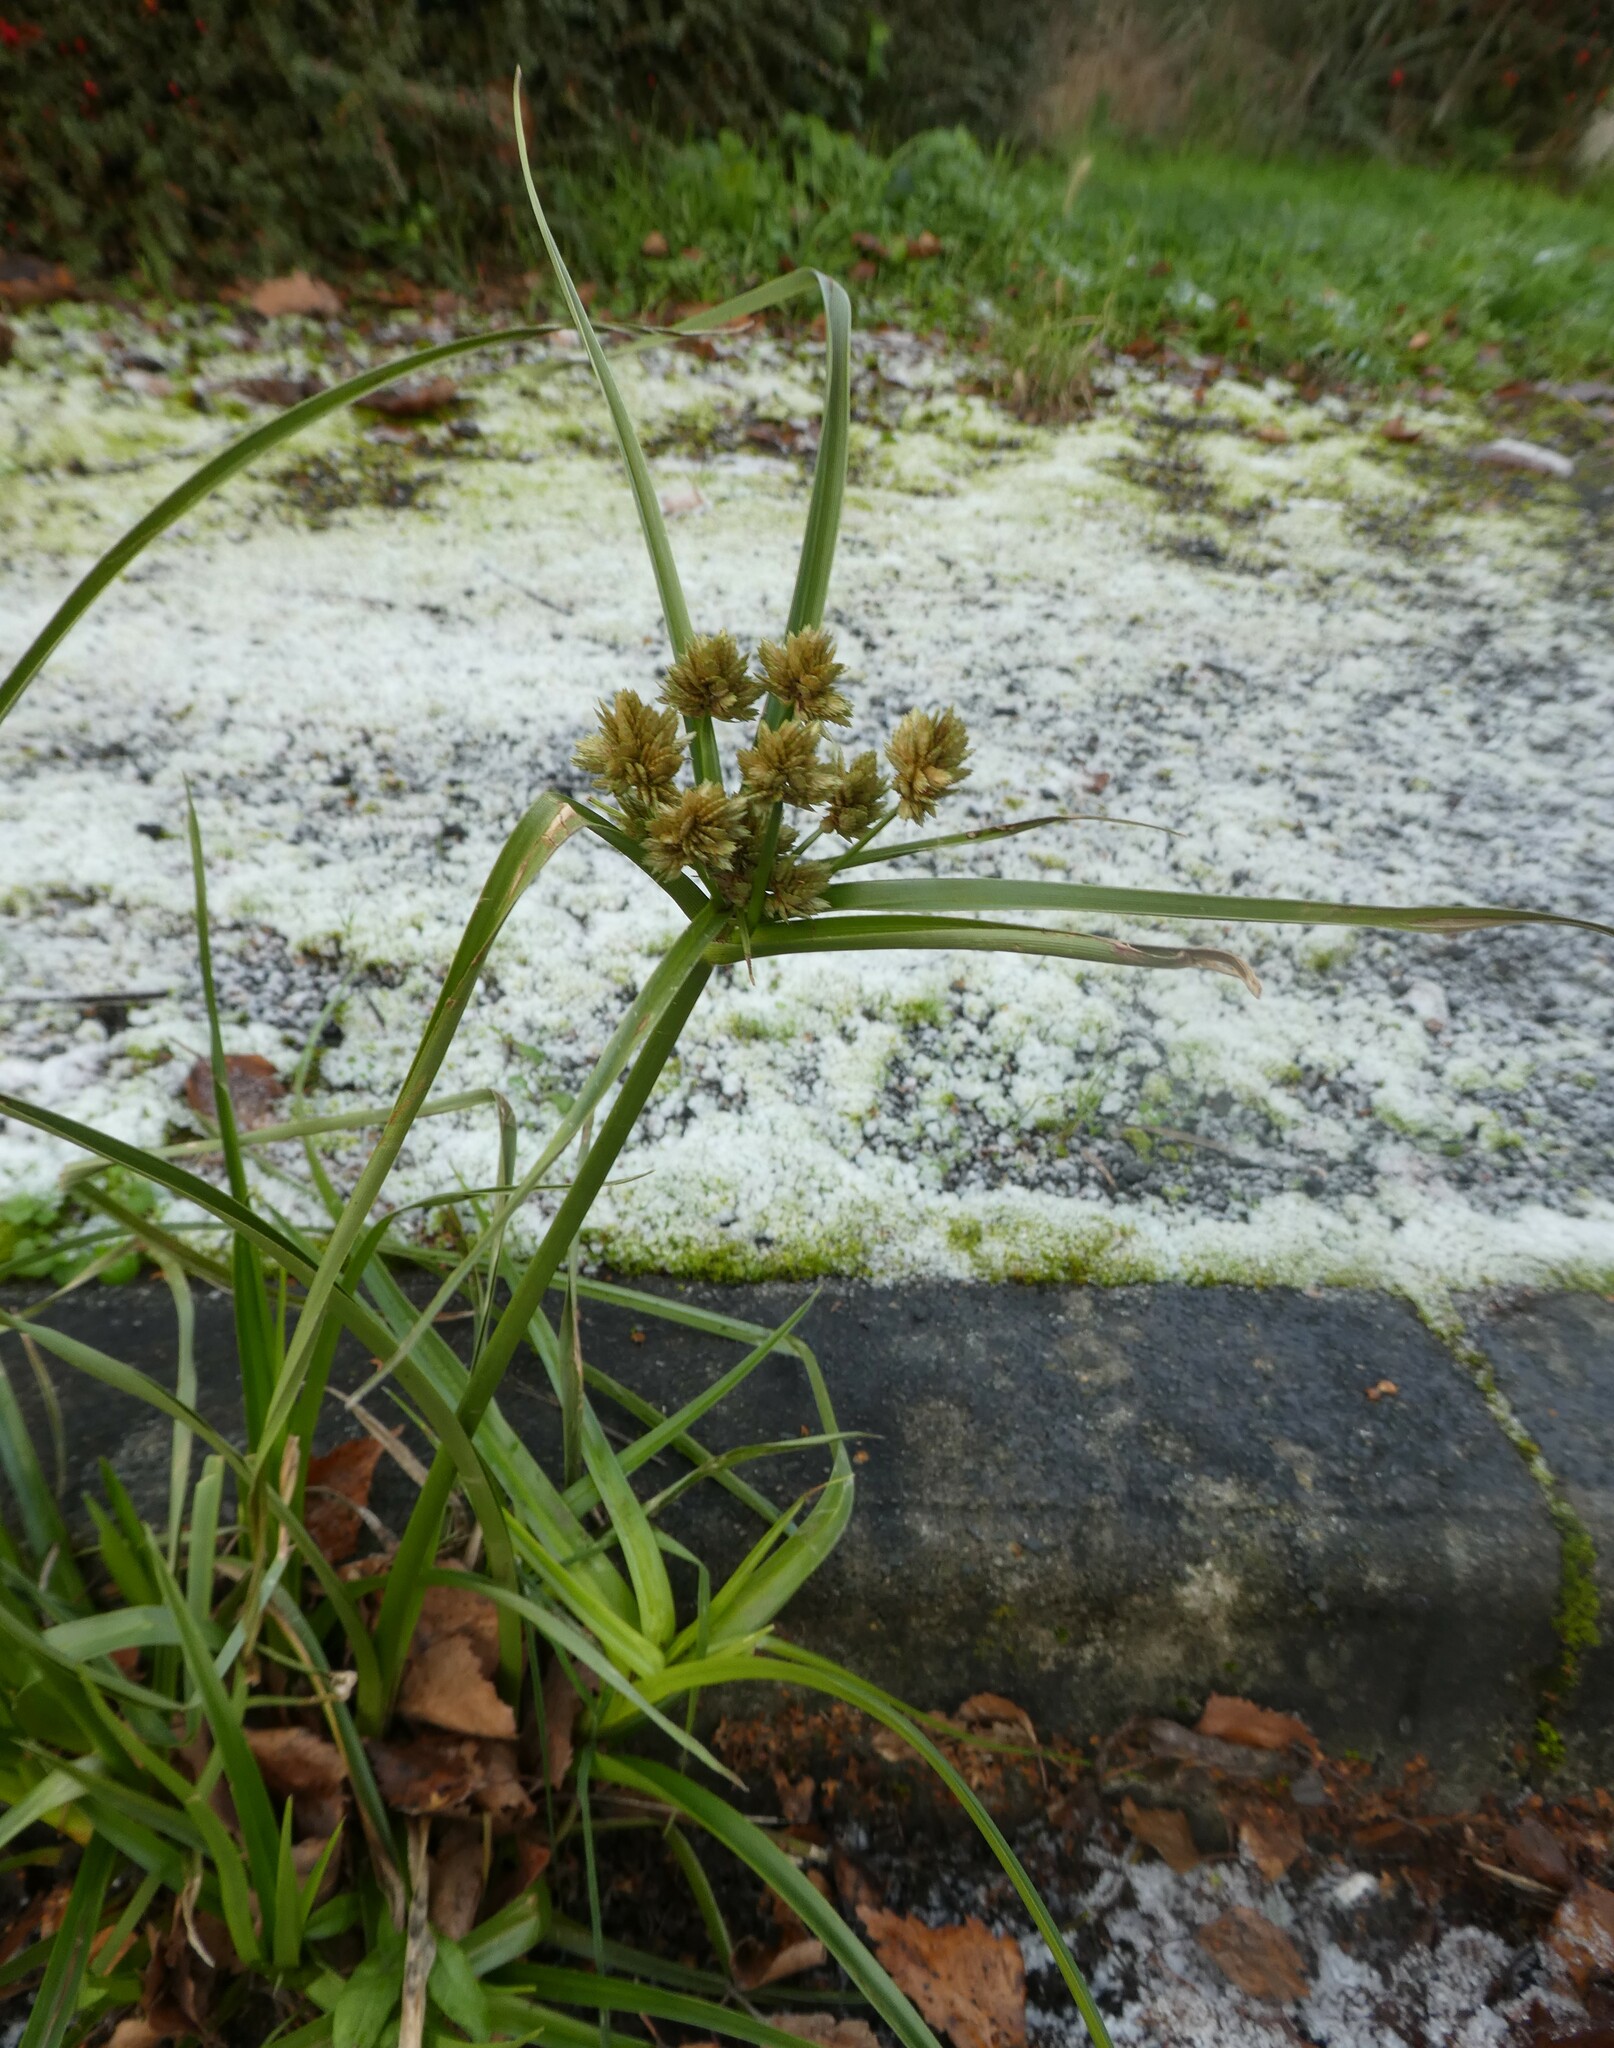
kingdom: Plantae
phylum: Tracheophyta
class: Liliopsida
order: Poales
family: Cyperaceae
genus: Cyperus
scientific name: Cyperus eragrostis
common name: Tall flatsedge
